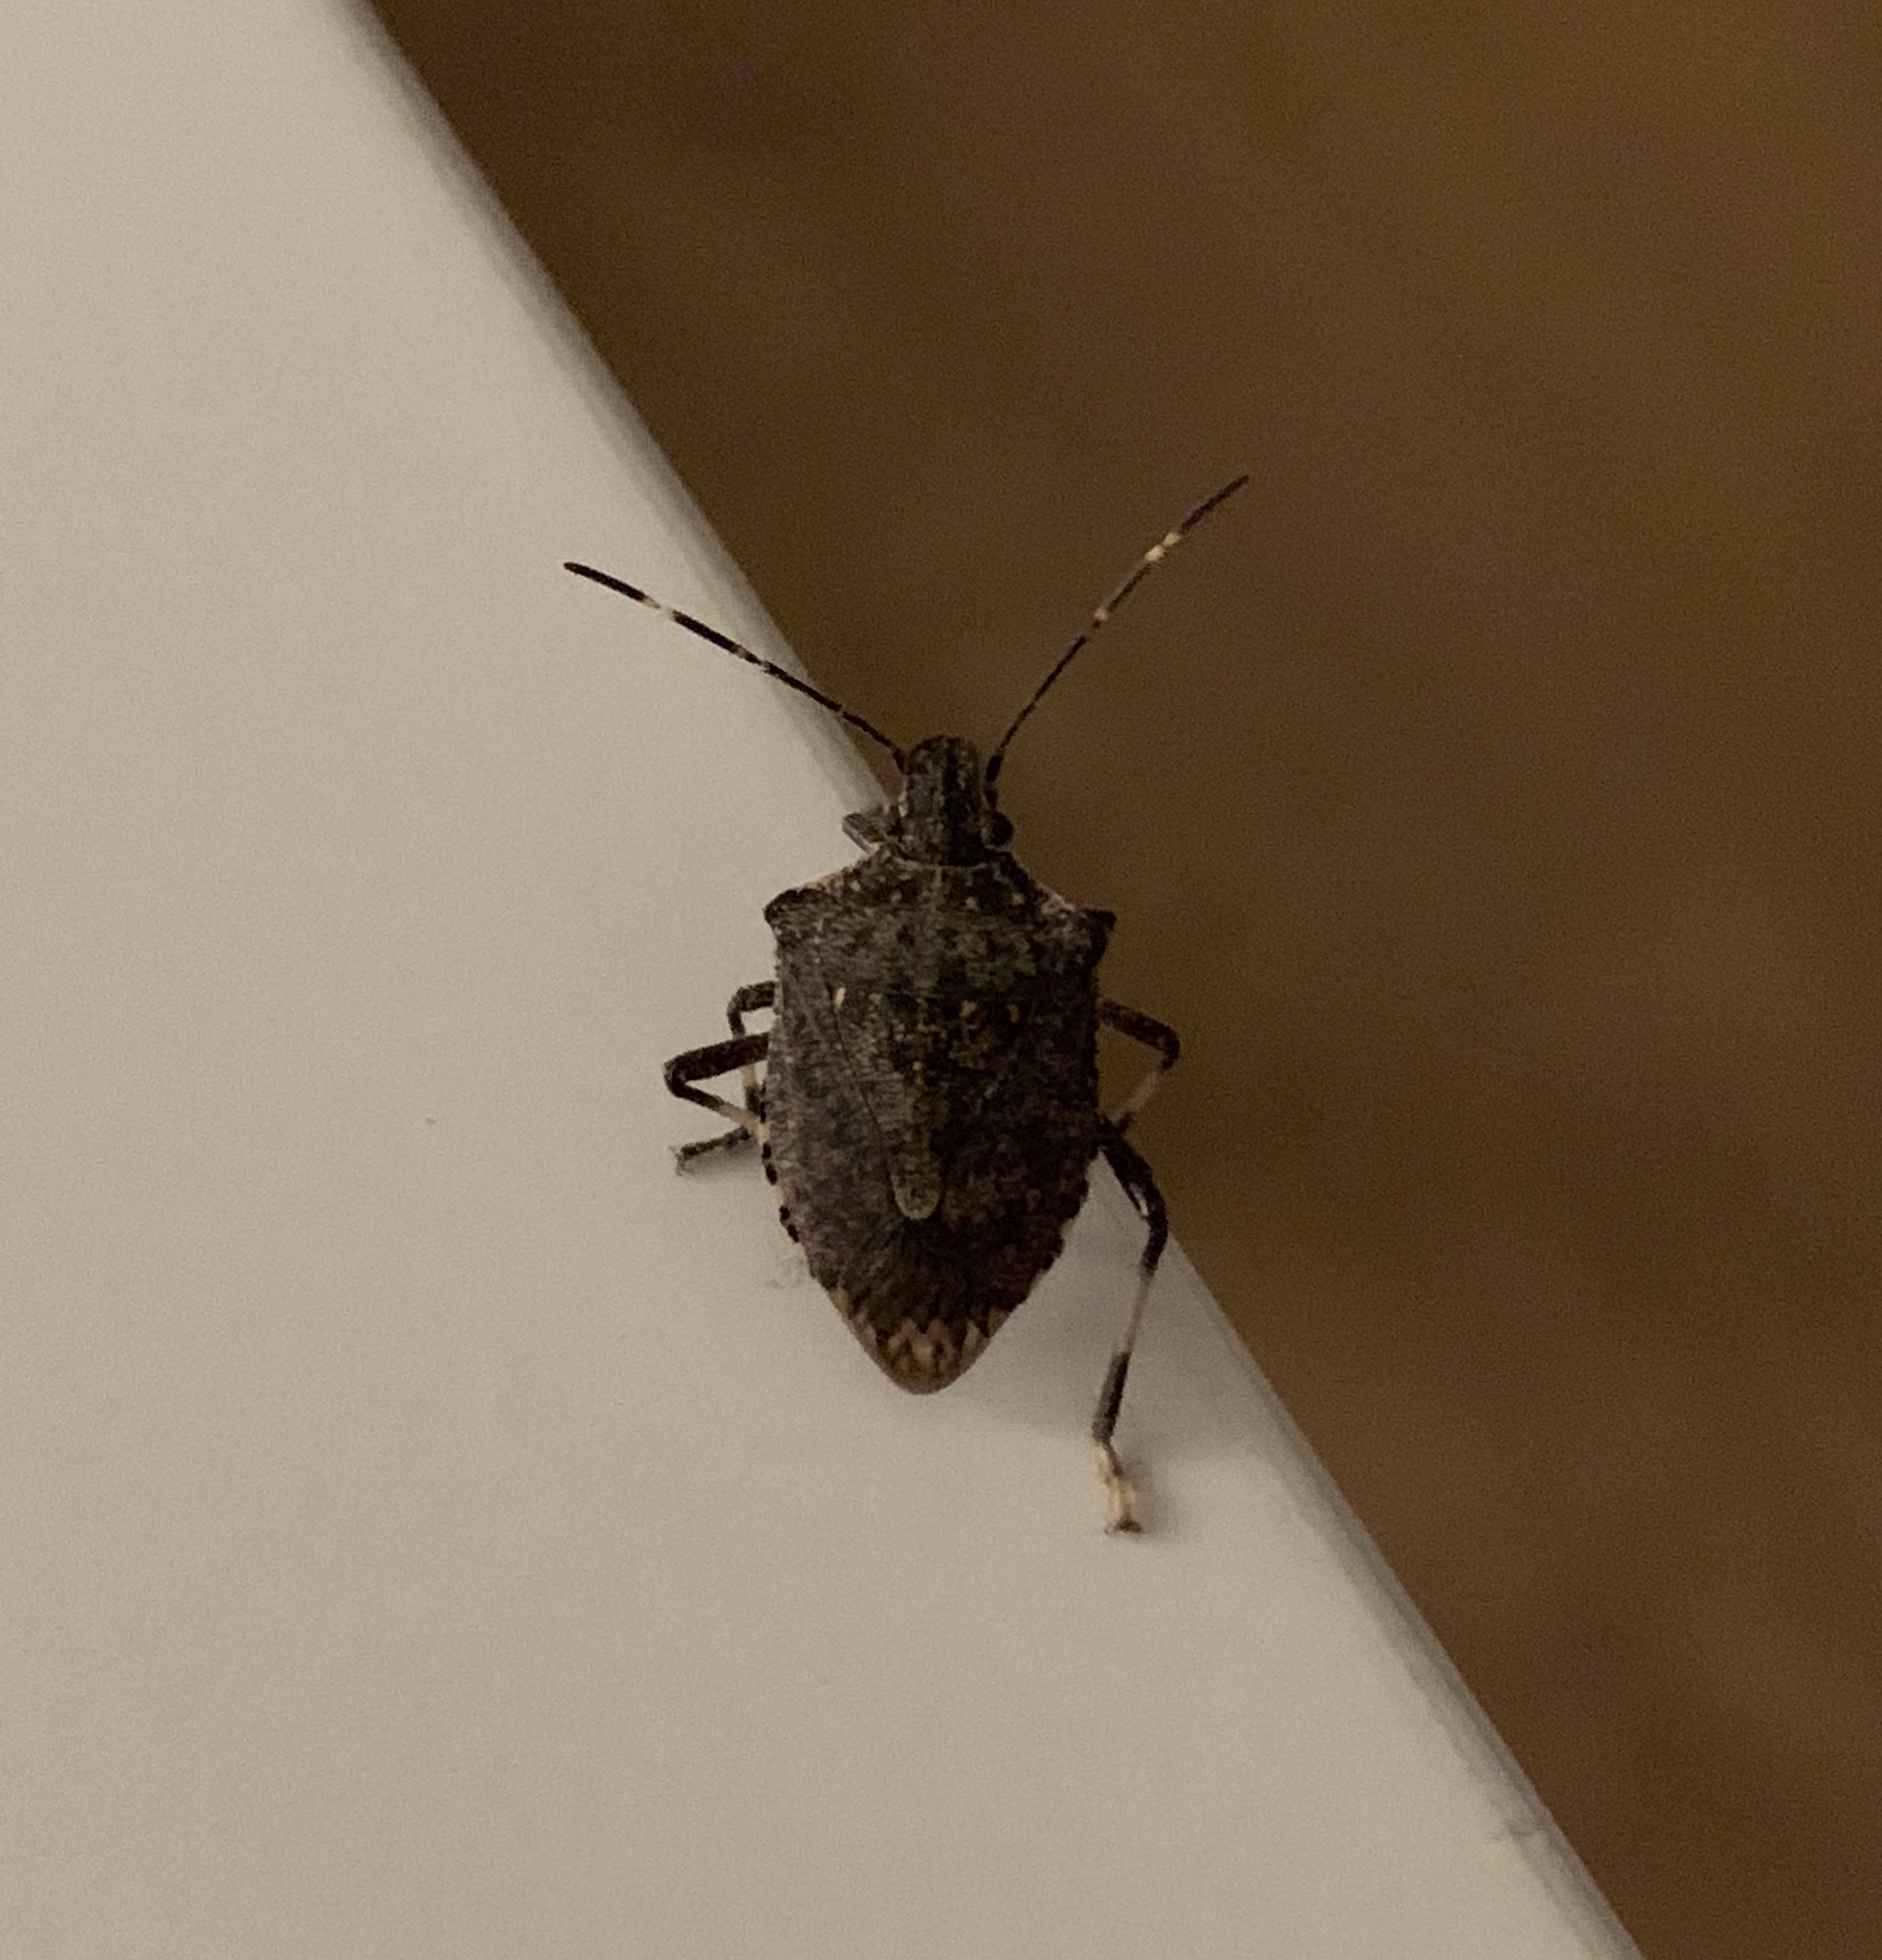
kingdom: Animalia
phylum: Arthropoda
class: Insecta
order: Hemiptera
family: Pentatomidae
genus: Halyomorpha
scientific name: Halyomorpha halys
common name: Brown marmorated stink bug
